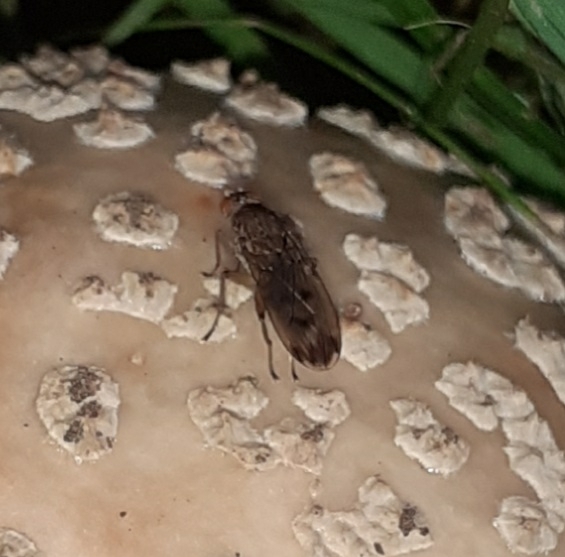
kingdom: Animalia
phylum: Arthropoda
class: Insecta
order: Diptera
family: Heleomyzidae
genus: Suillia
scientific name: Suillia variegata
